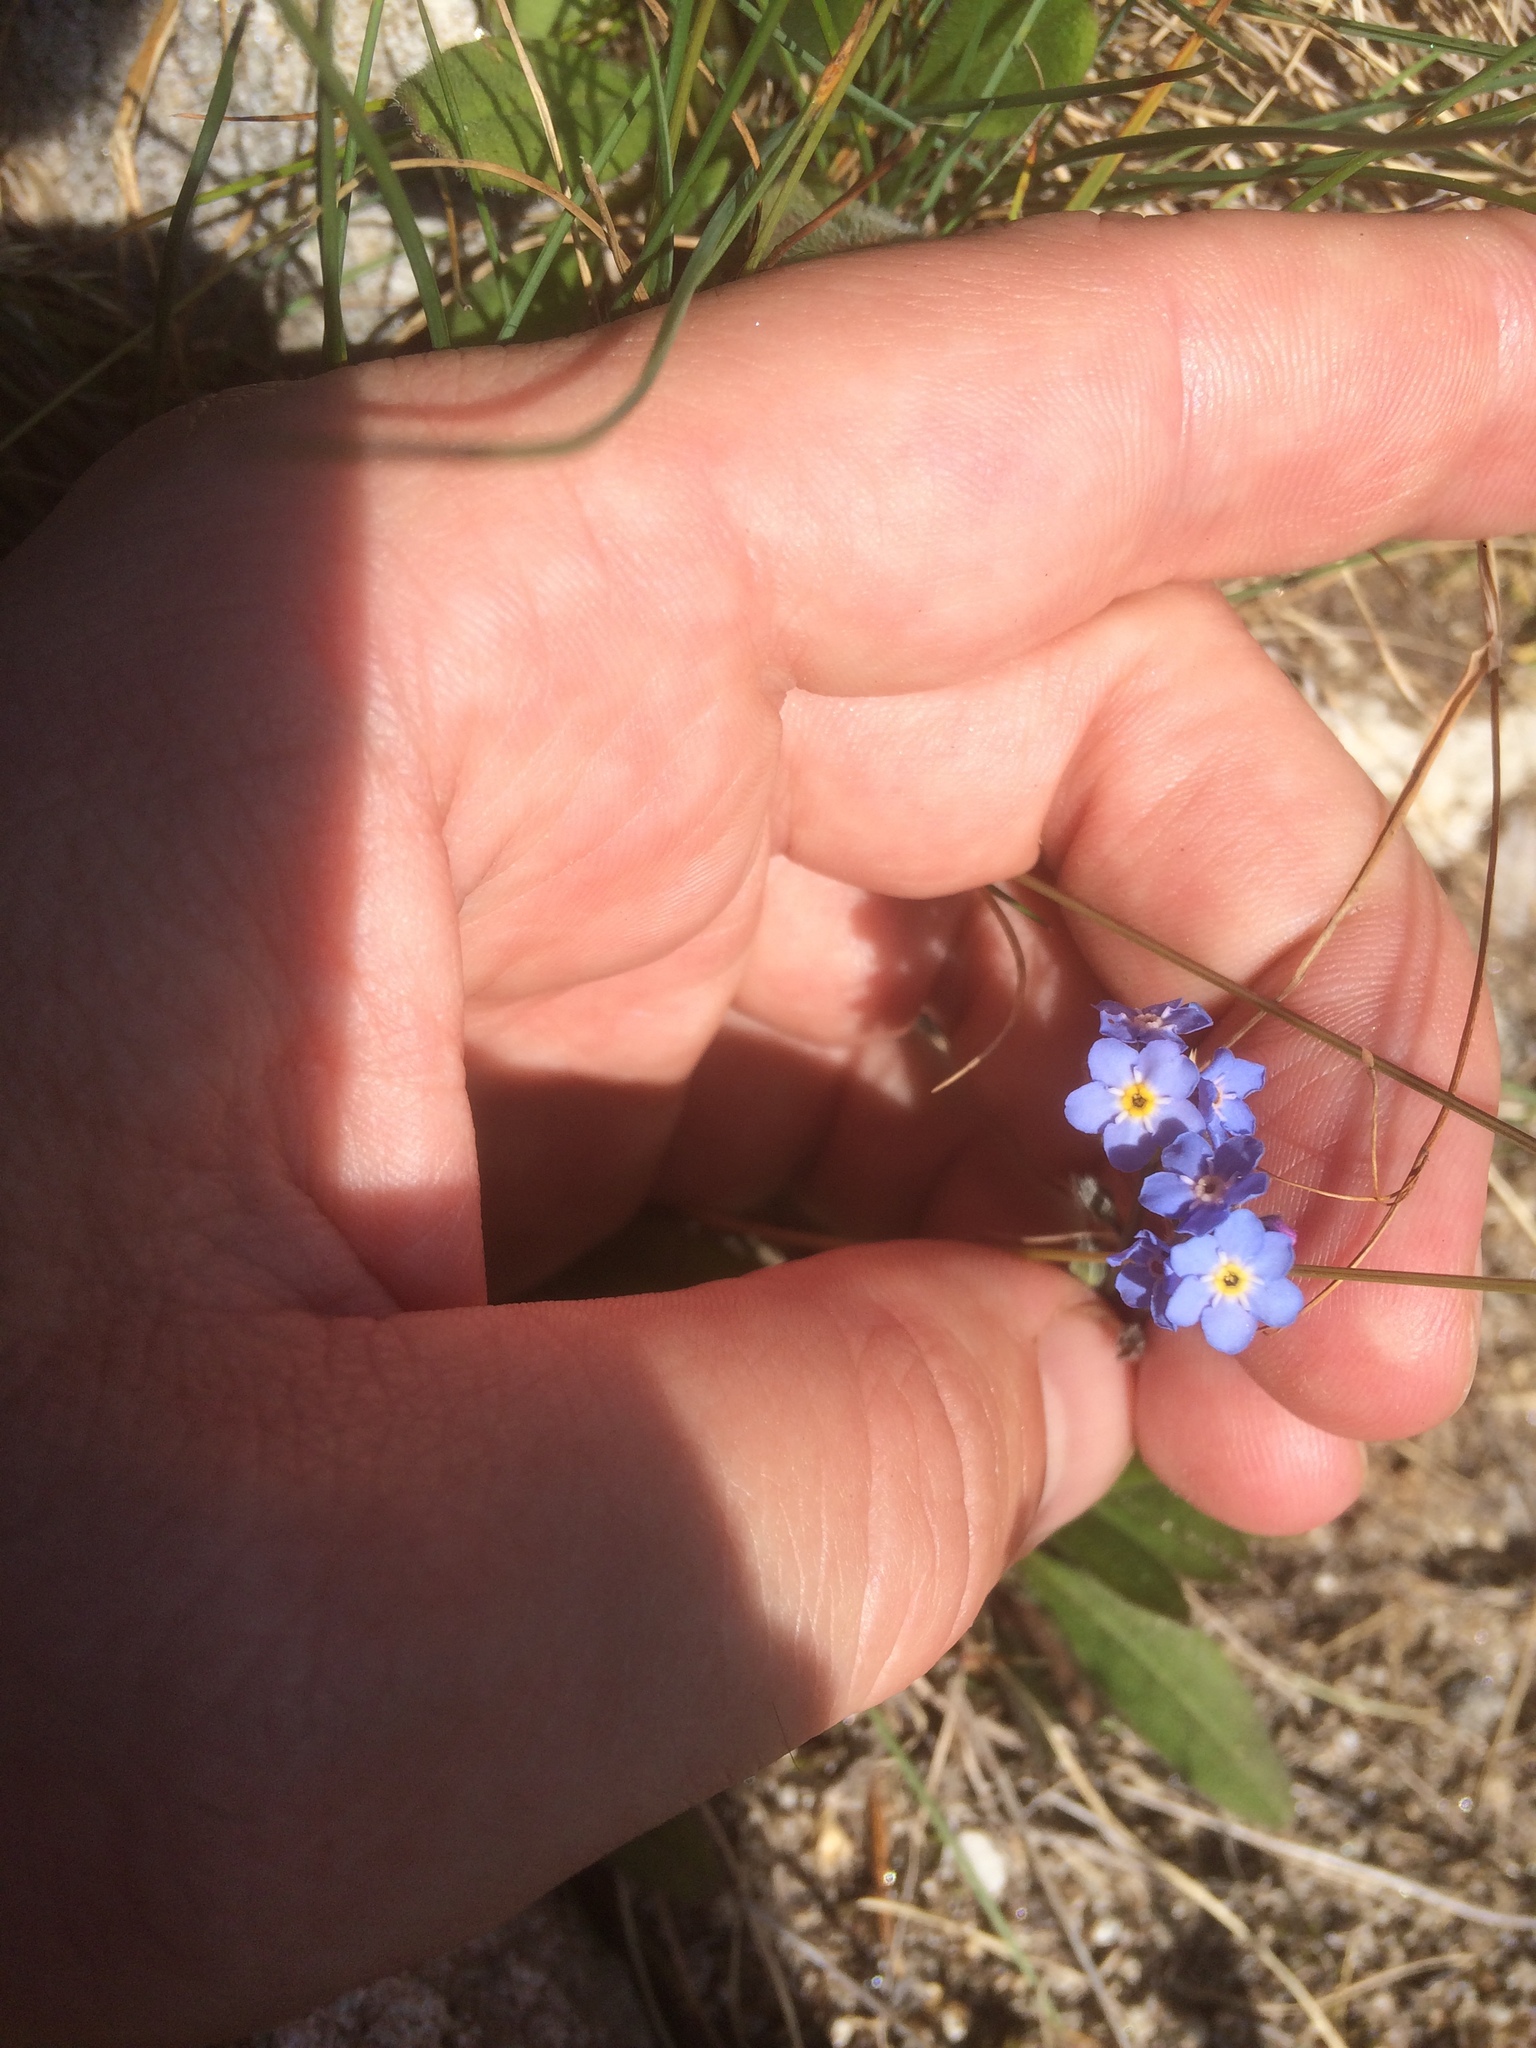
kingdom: Plantae
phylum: Tracheophyta
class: Magnoliopsida
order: Boraginales
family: Boraginaceae
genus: Myosotis
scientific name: Myosotis alpestris
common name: Alpine forget-me-not
